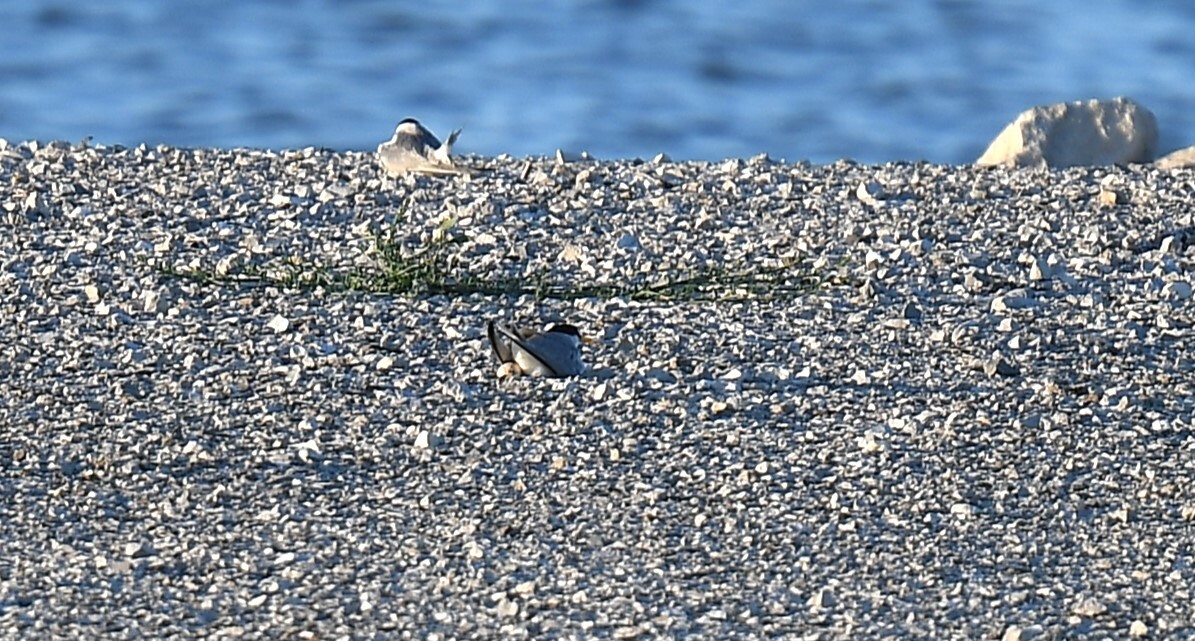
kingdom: Animalia
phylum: Chordata
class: Aves
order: Charadriiformes
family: Laridae
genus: Sternula
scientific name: Sternula antillarum
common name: Least tern
